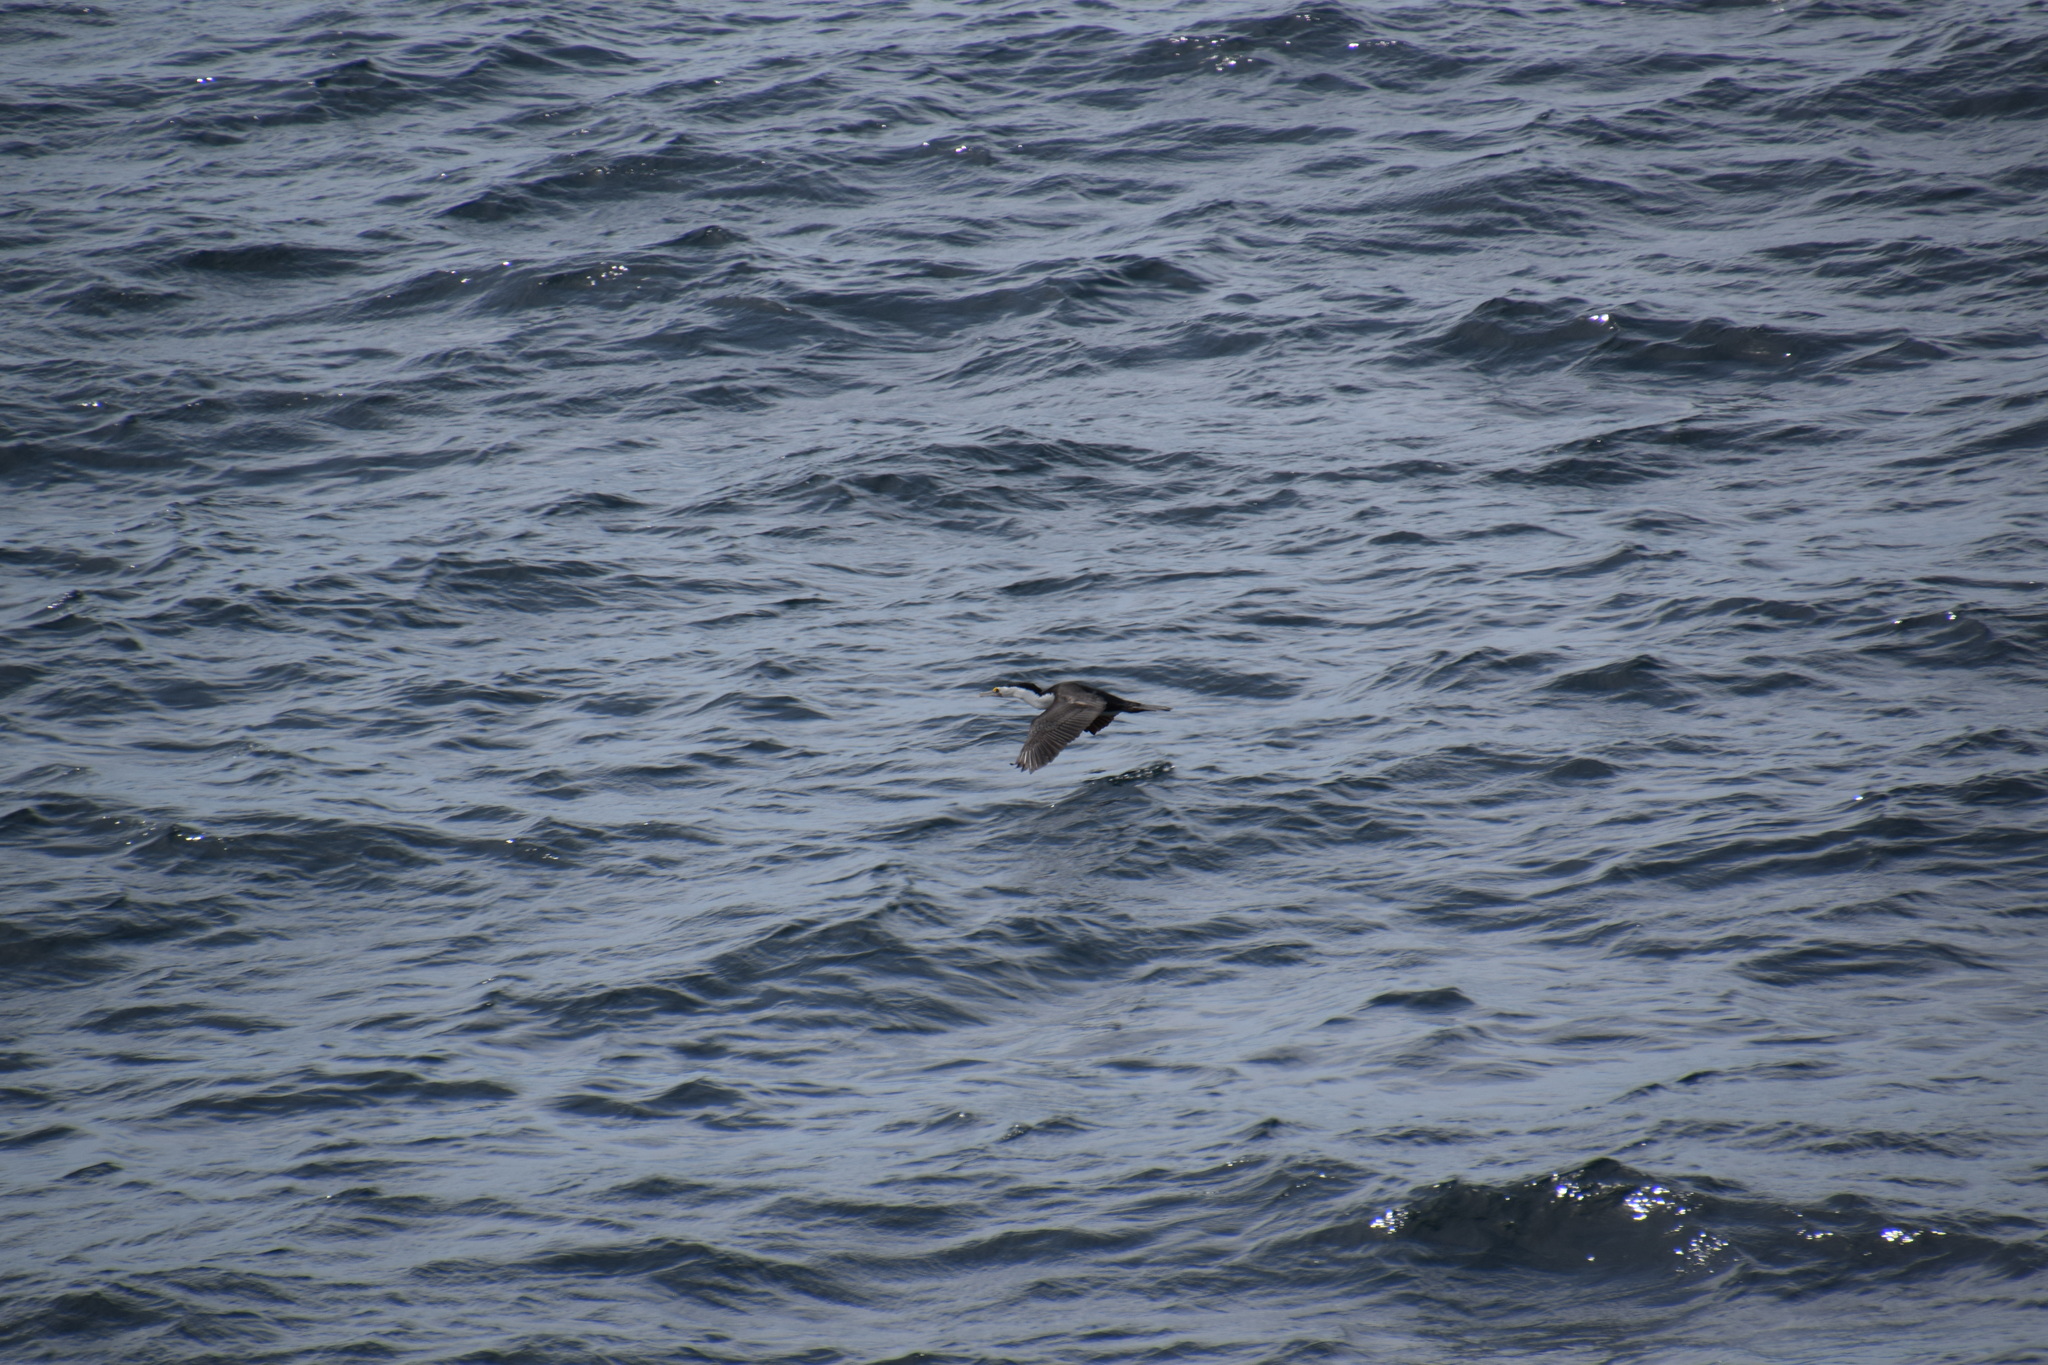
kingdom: Animalia
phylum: Chordata
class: Aves
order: Suliformes
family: Phalacrocoracidae
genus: Phalacrocorax
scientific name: Phalacrocorax varius
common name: Pied cormorant
